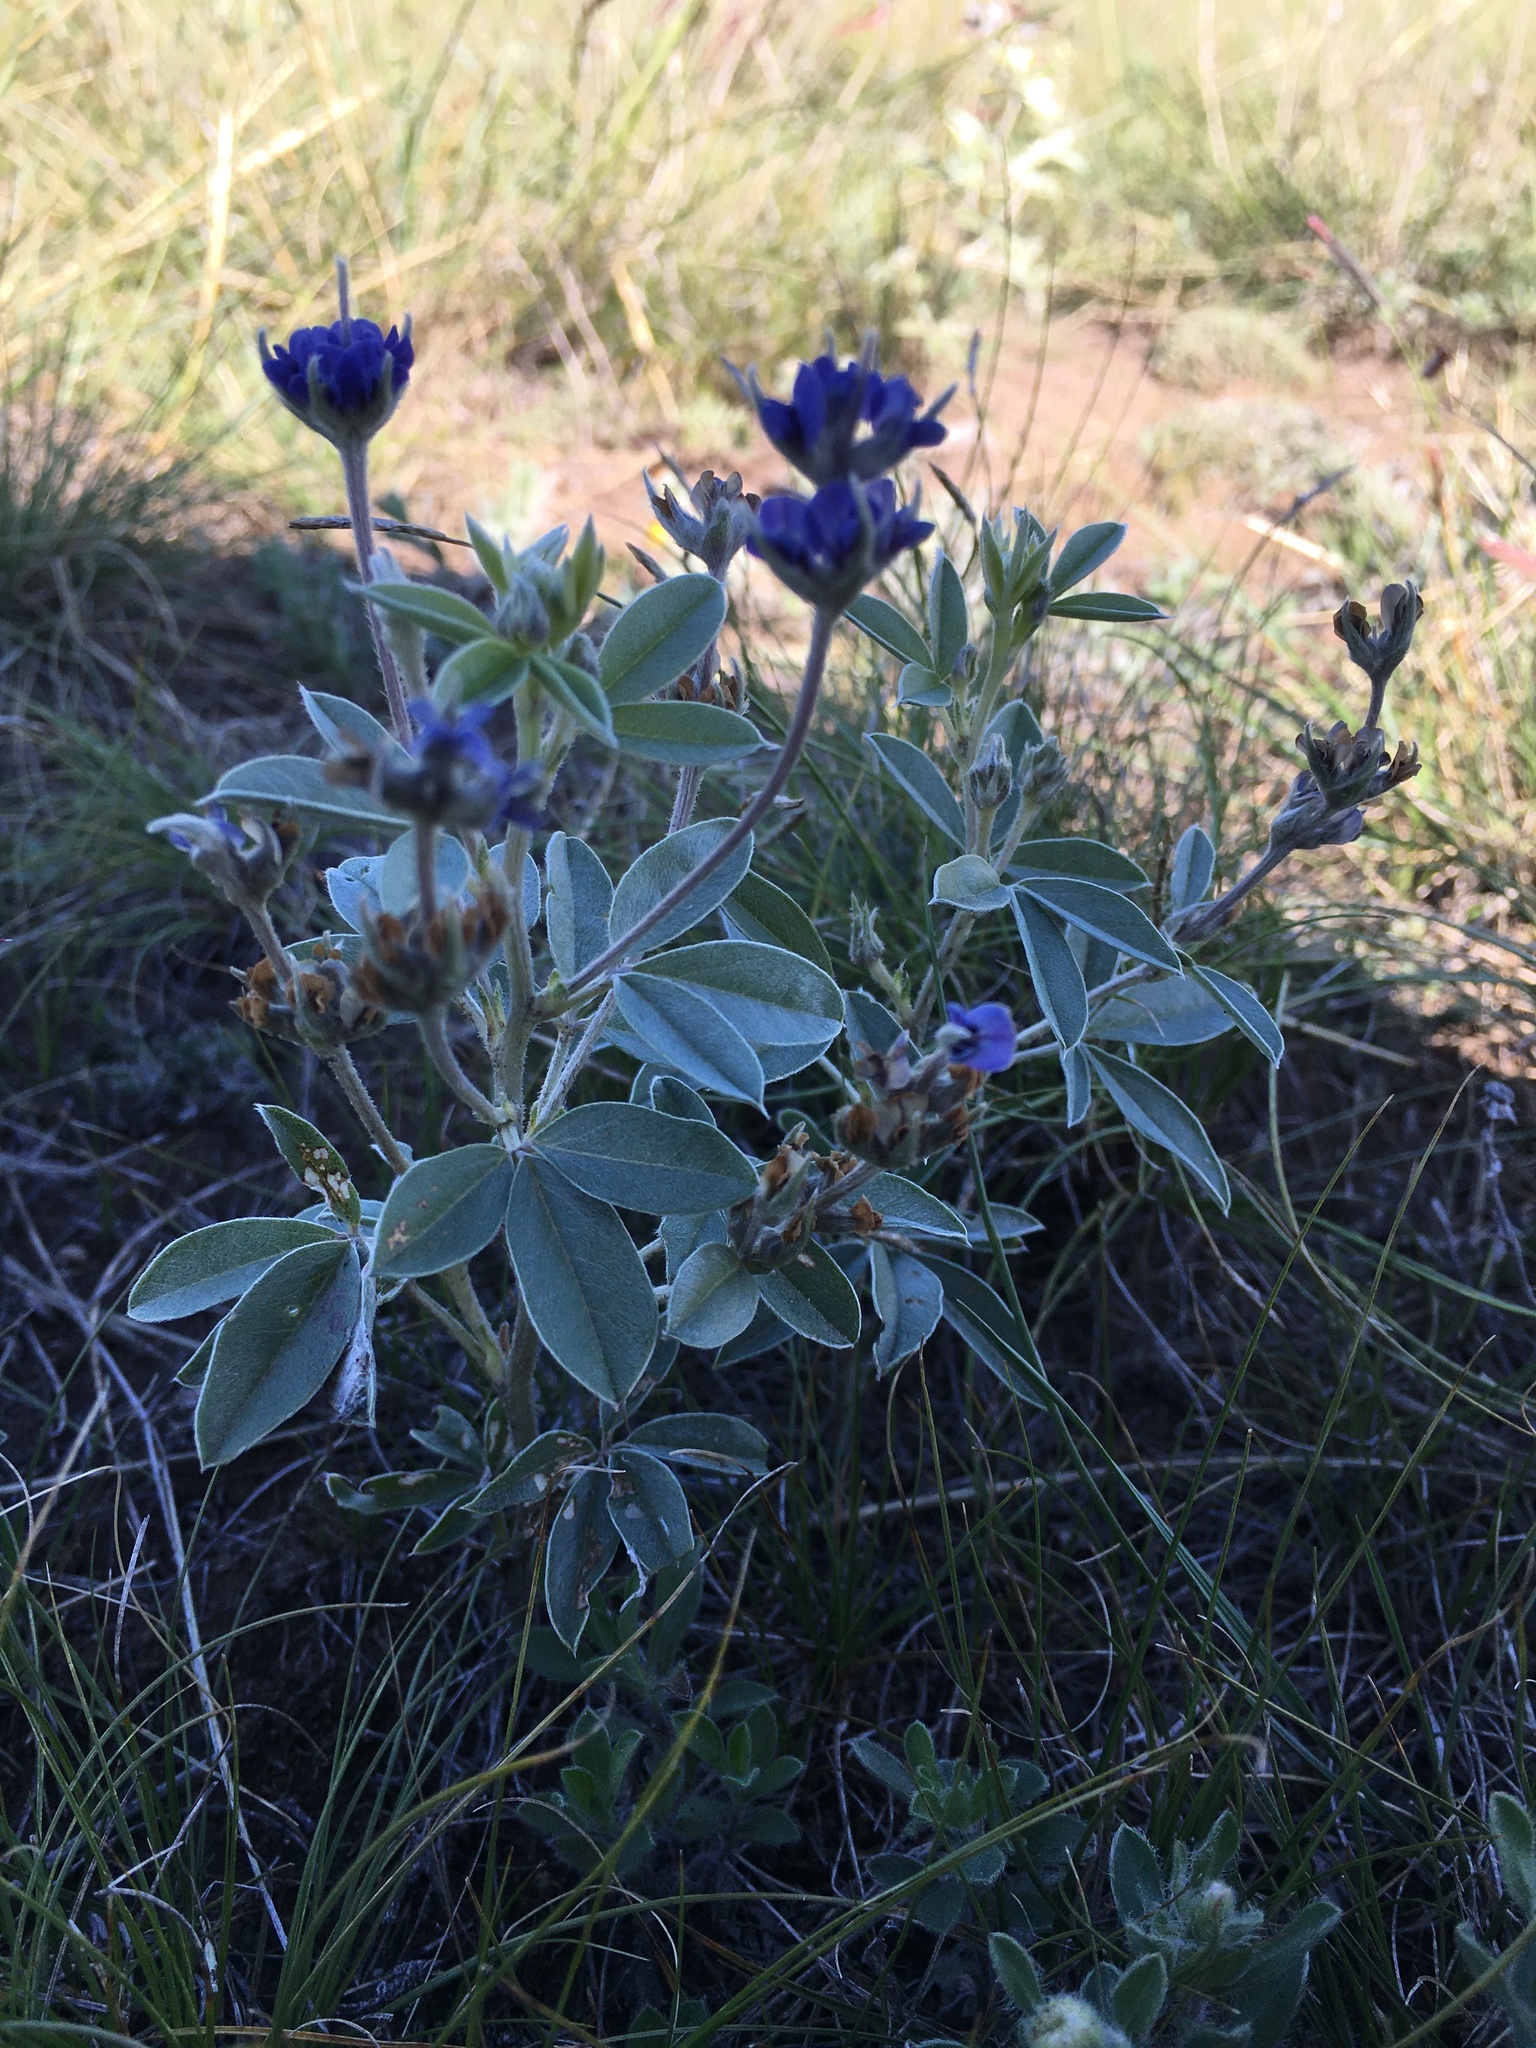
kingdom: Plantae
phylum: Tracheophyta
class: Magnoliopsida
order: Fabales
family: Fabaceae
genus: Pediomelum
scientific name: Pediomelum argophyllum
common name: Silver-leaved indian breadroot
